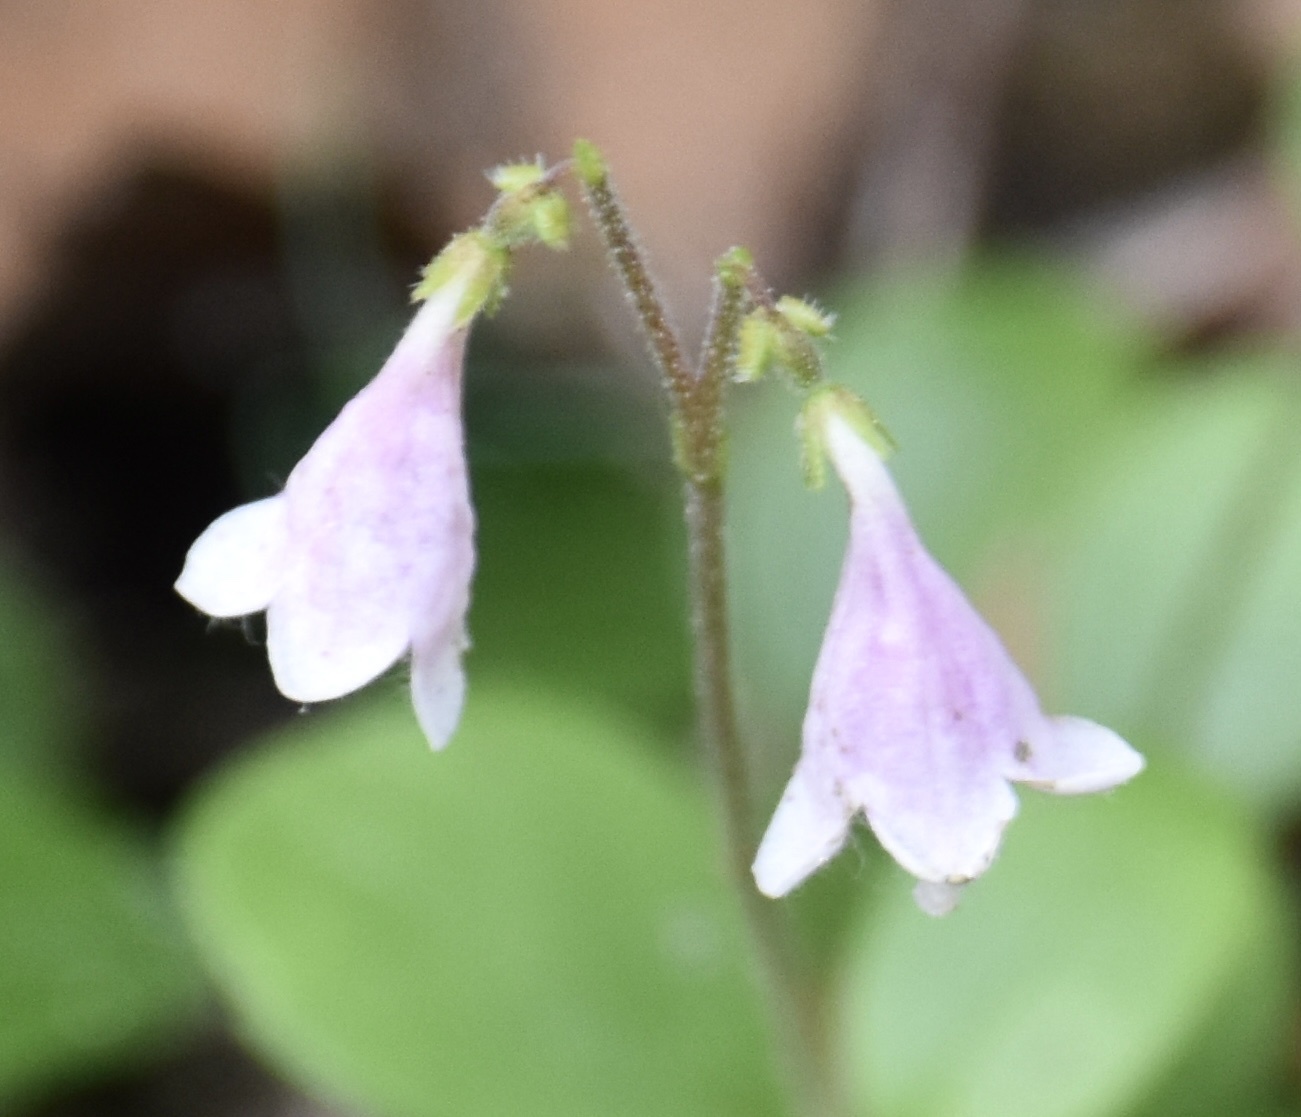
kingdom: Plantae
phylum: Tracheophyta
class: Magnoliopsida
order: Dipsacales
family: Caprifoliaceae
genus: Linnaea
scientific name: Linnaea borealis
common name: Twinflower
